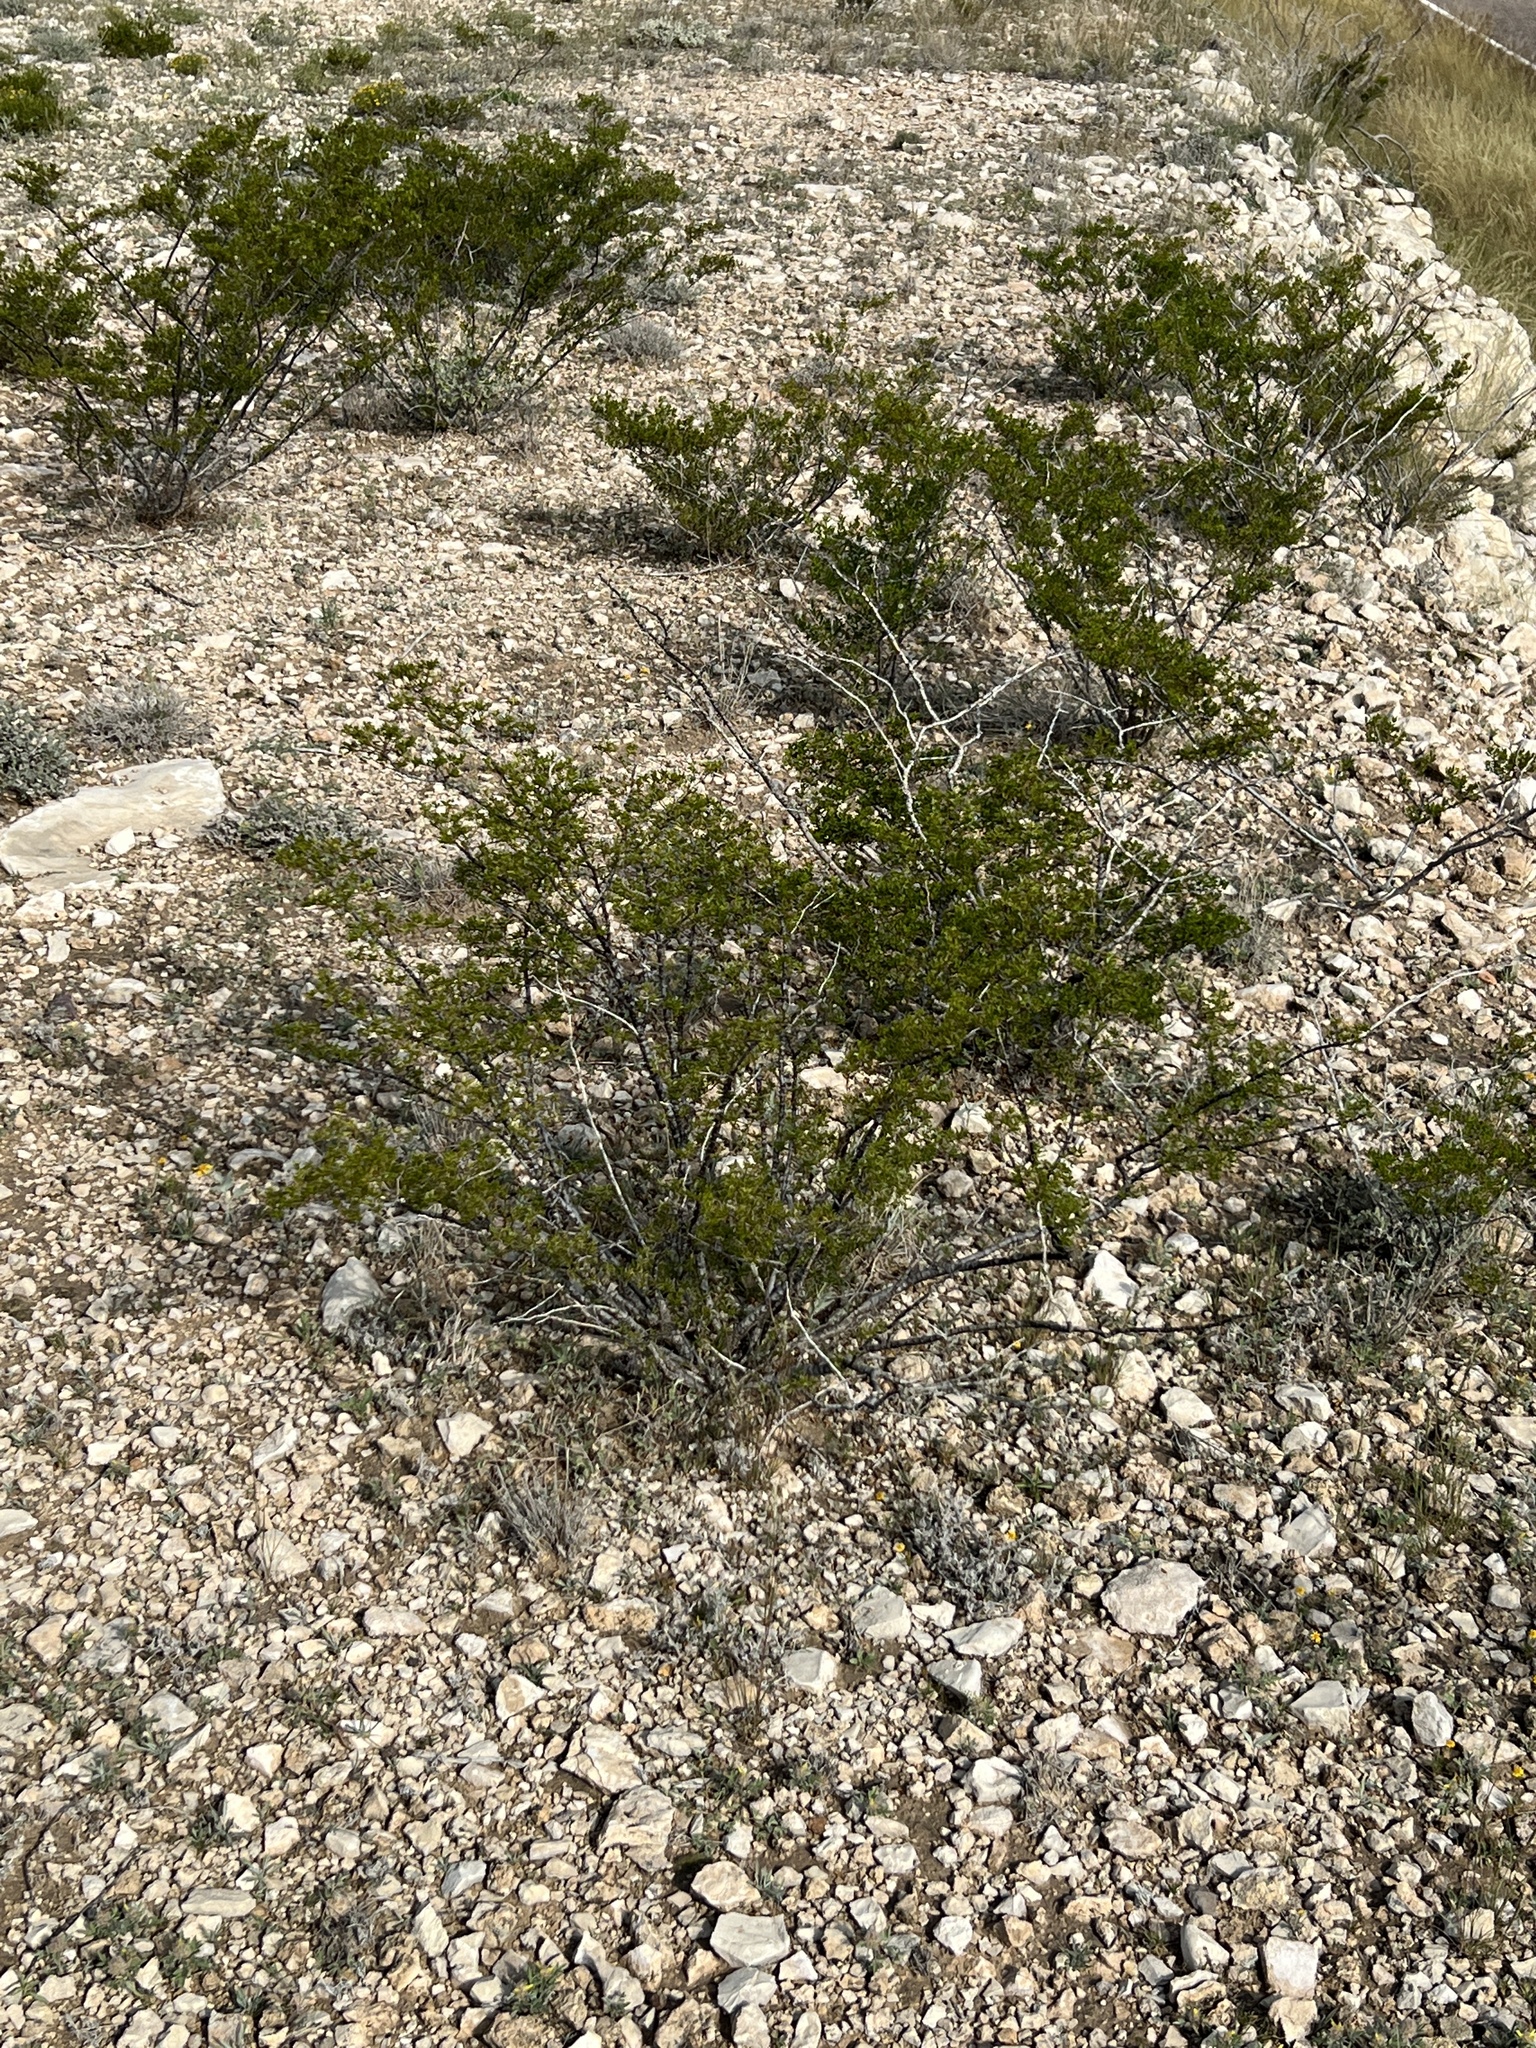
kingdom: Plantae
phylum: Tracheophyta
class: Magnoliopsida
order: Zygophyllales
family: Zygophyllaceae
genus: Larrea
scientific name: Larrea tridentata
